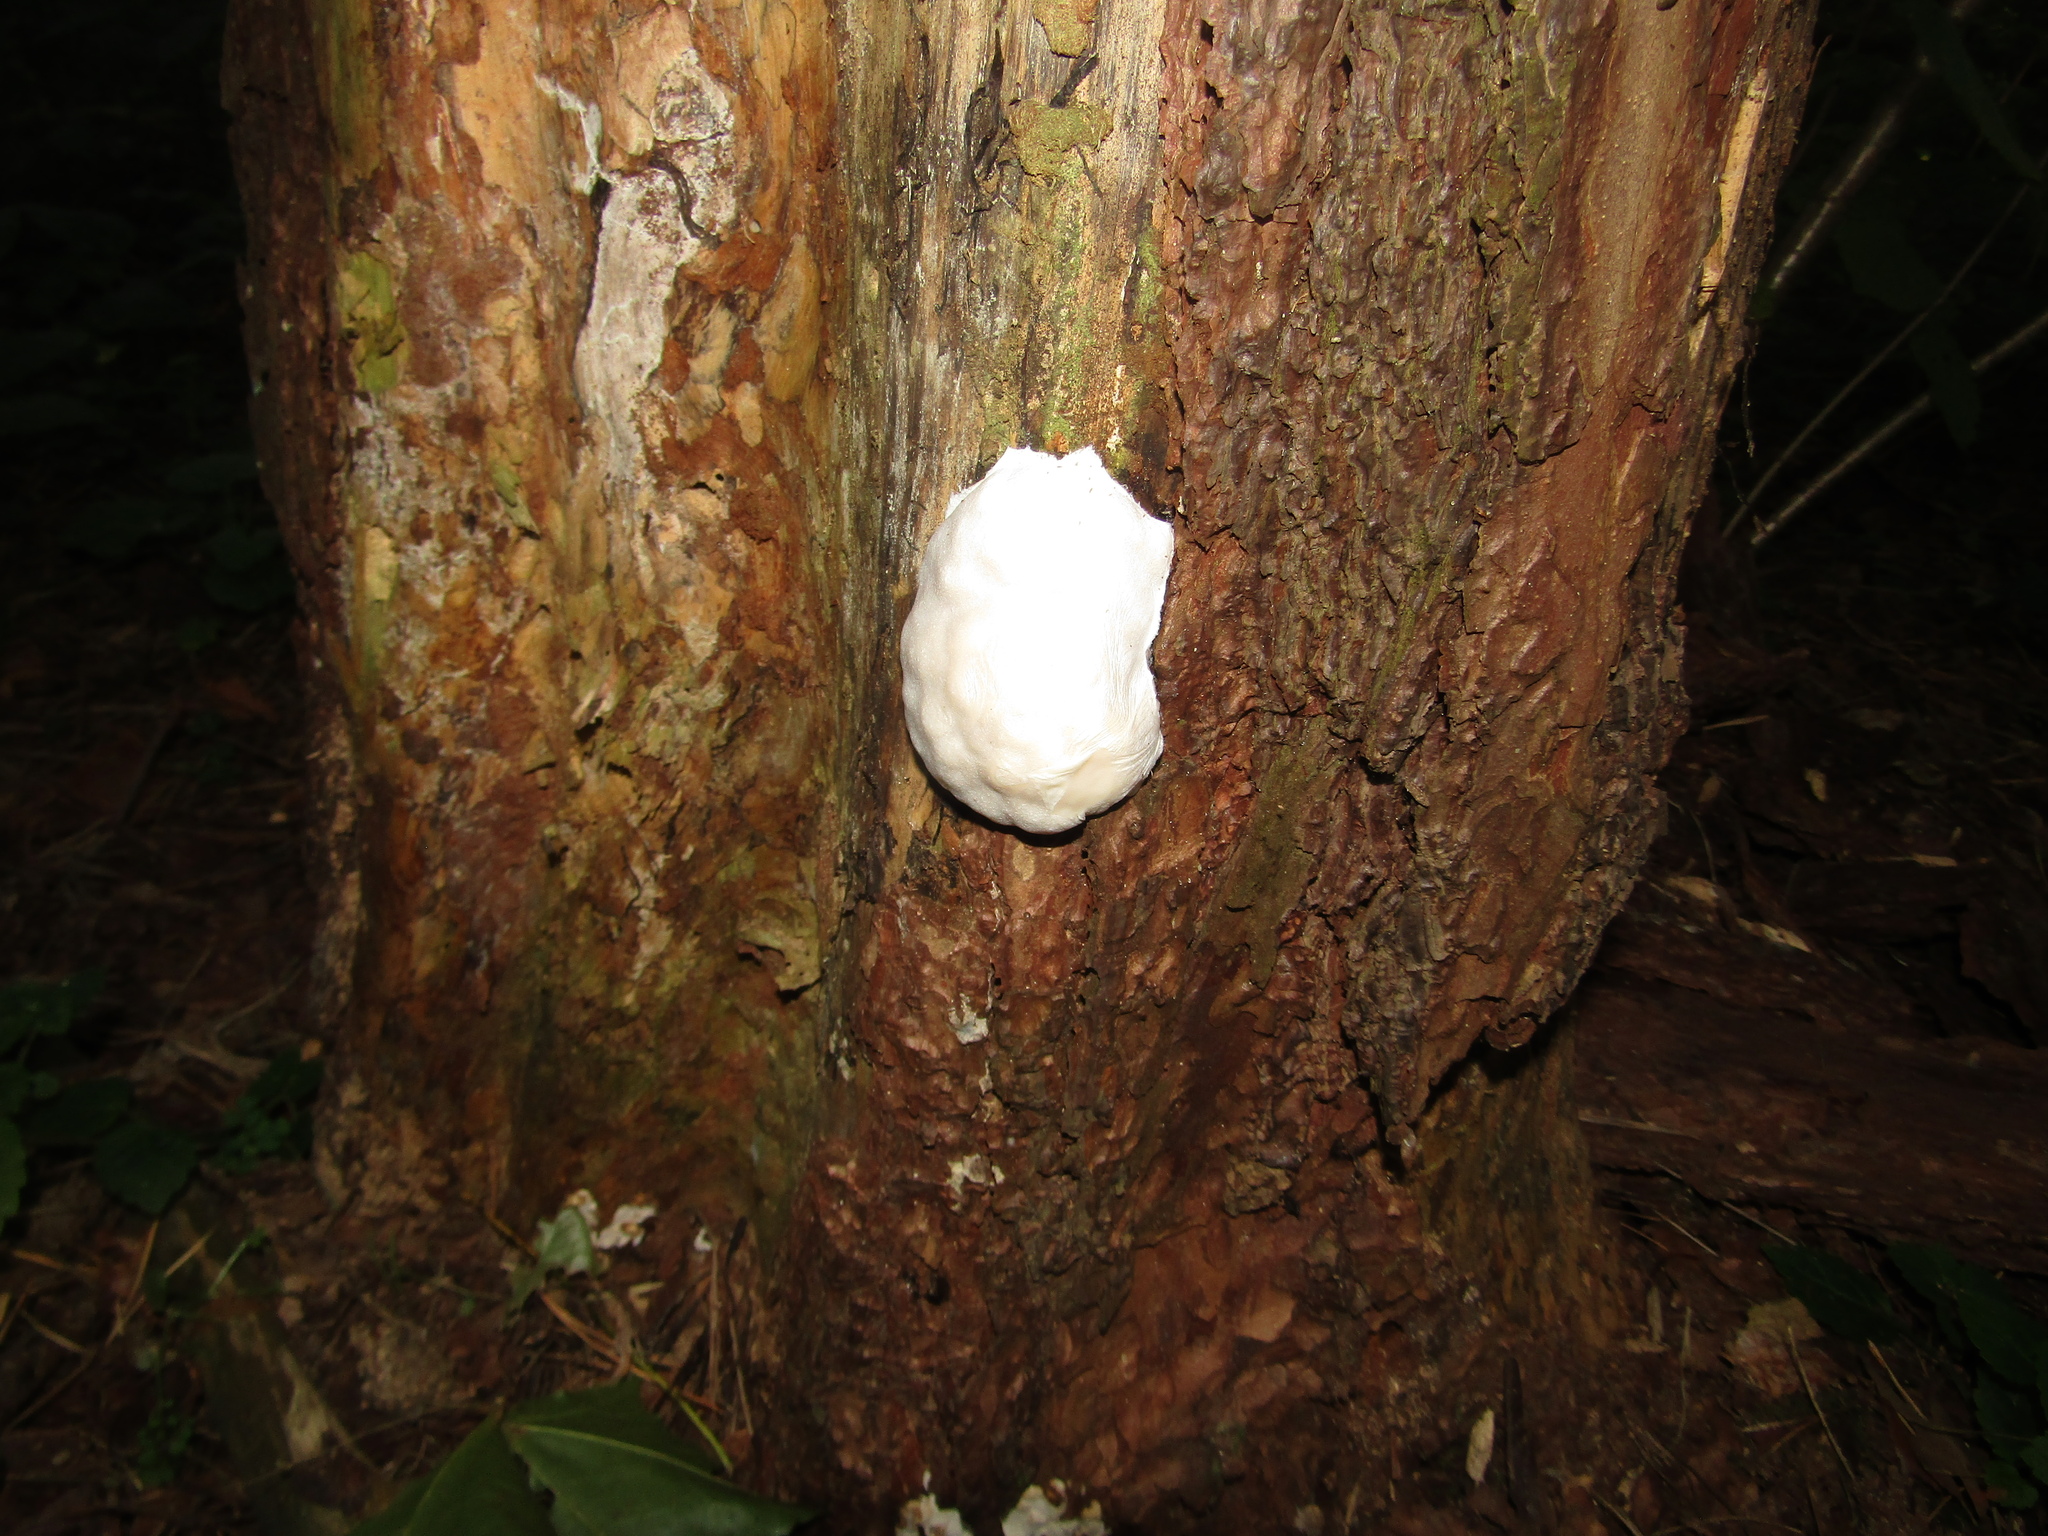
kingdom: Protozoa
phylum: Mycetozoa
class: Myxomycetes
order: Cribrariales
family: Tubiferaceae
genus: Reticularia
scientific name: Reticularia lycoperdon
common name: False puffball
